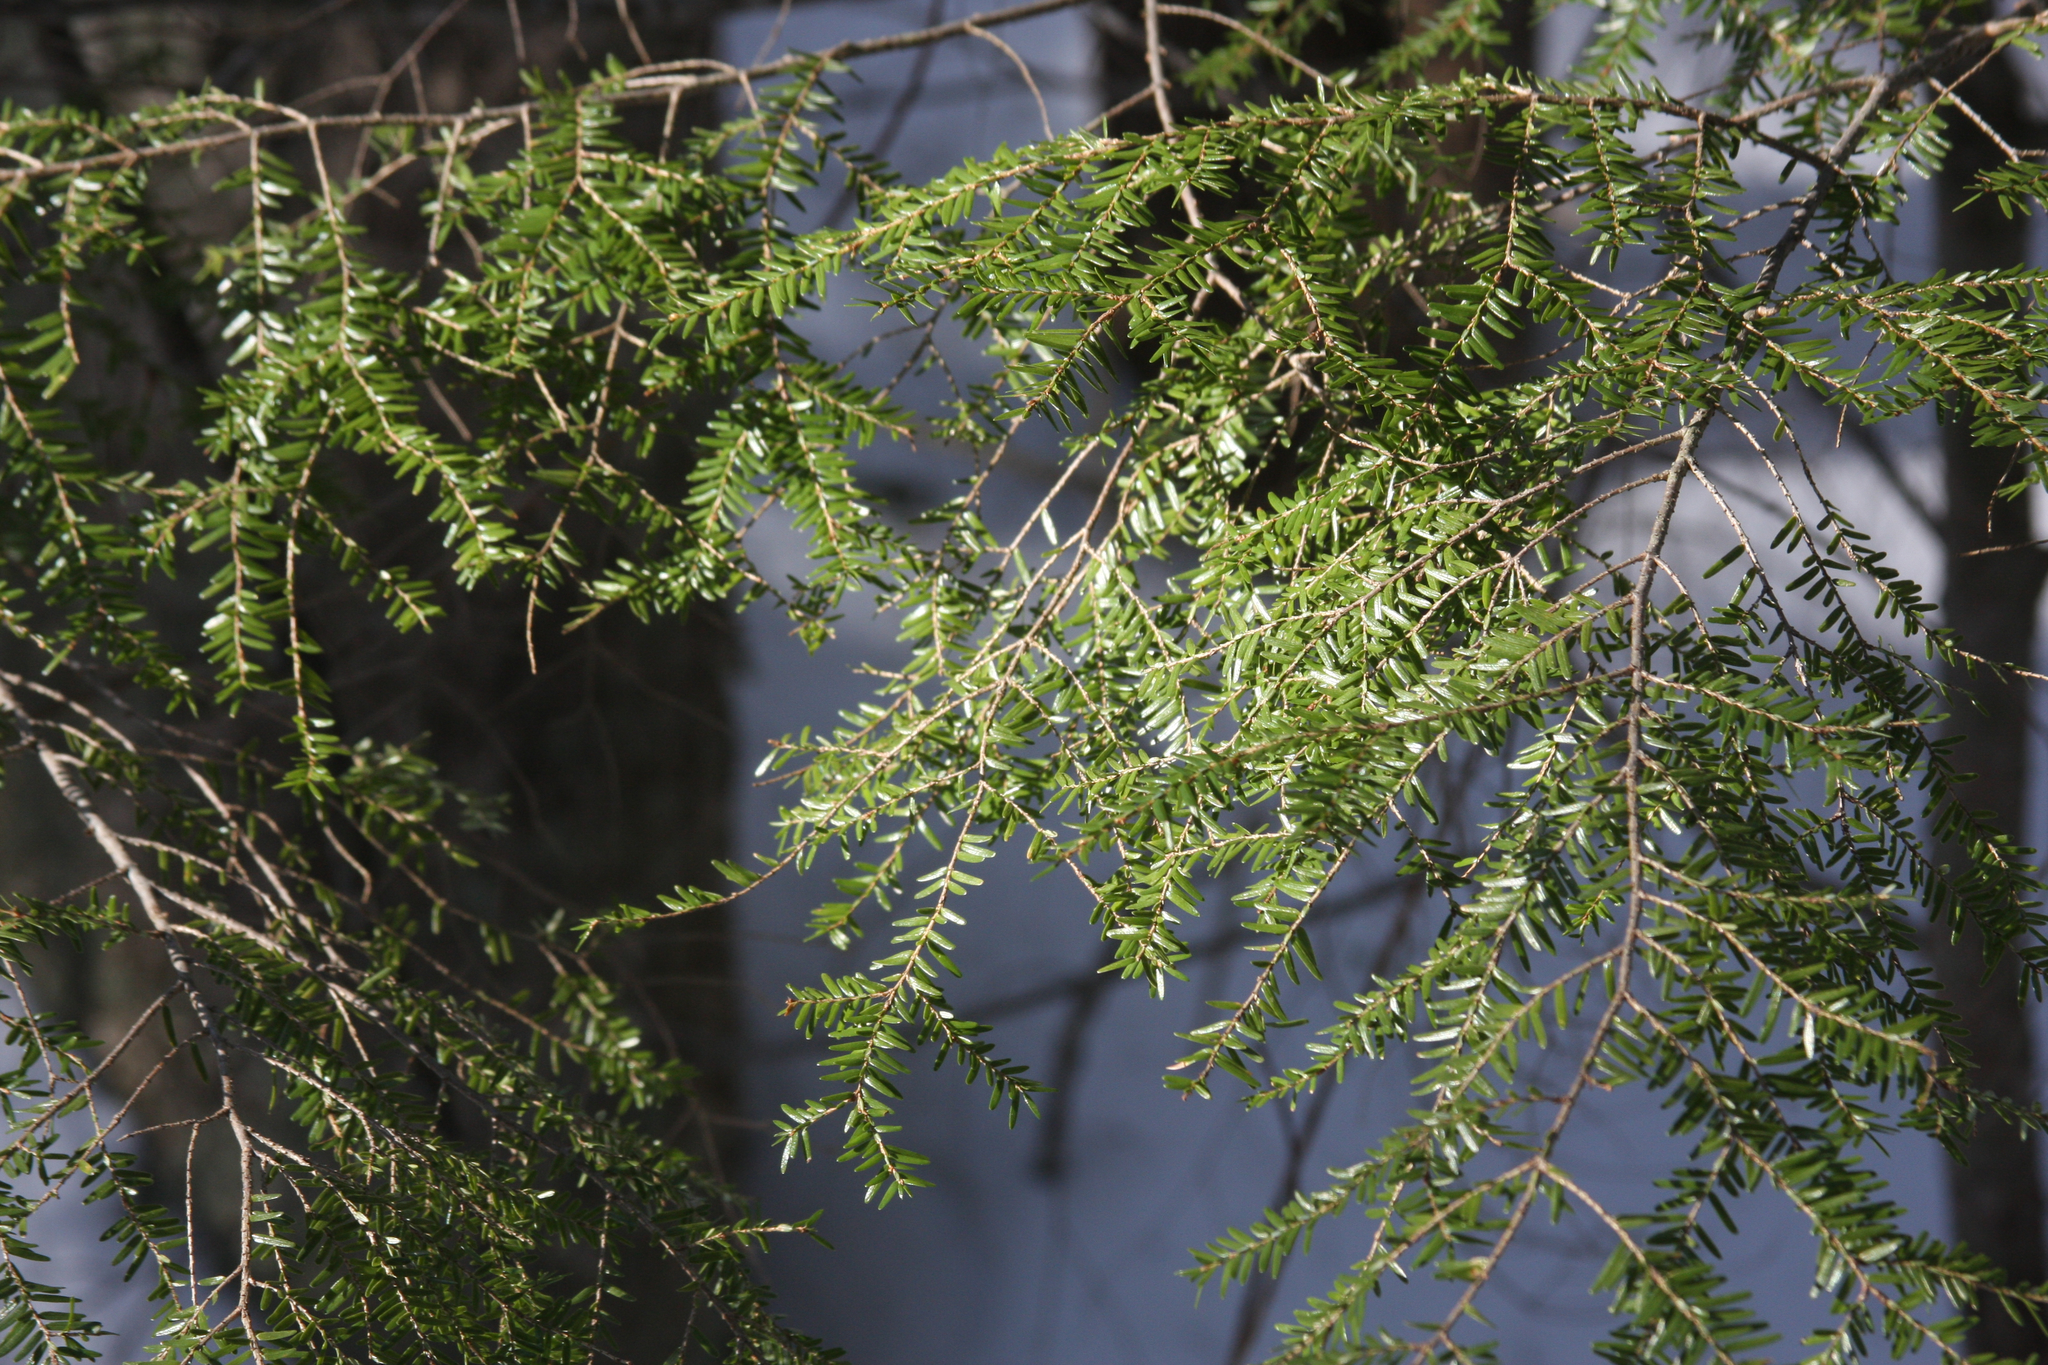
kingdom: Plantae
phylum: Tracheophyta
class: Pinopsida
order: Pinales
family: Pinaceae
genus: Tsuga
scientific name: Tsuga canadensis
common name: Eastern hemlock
